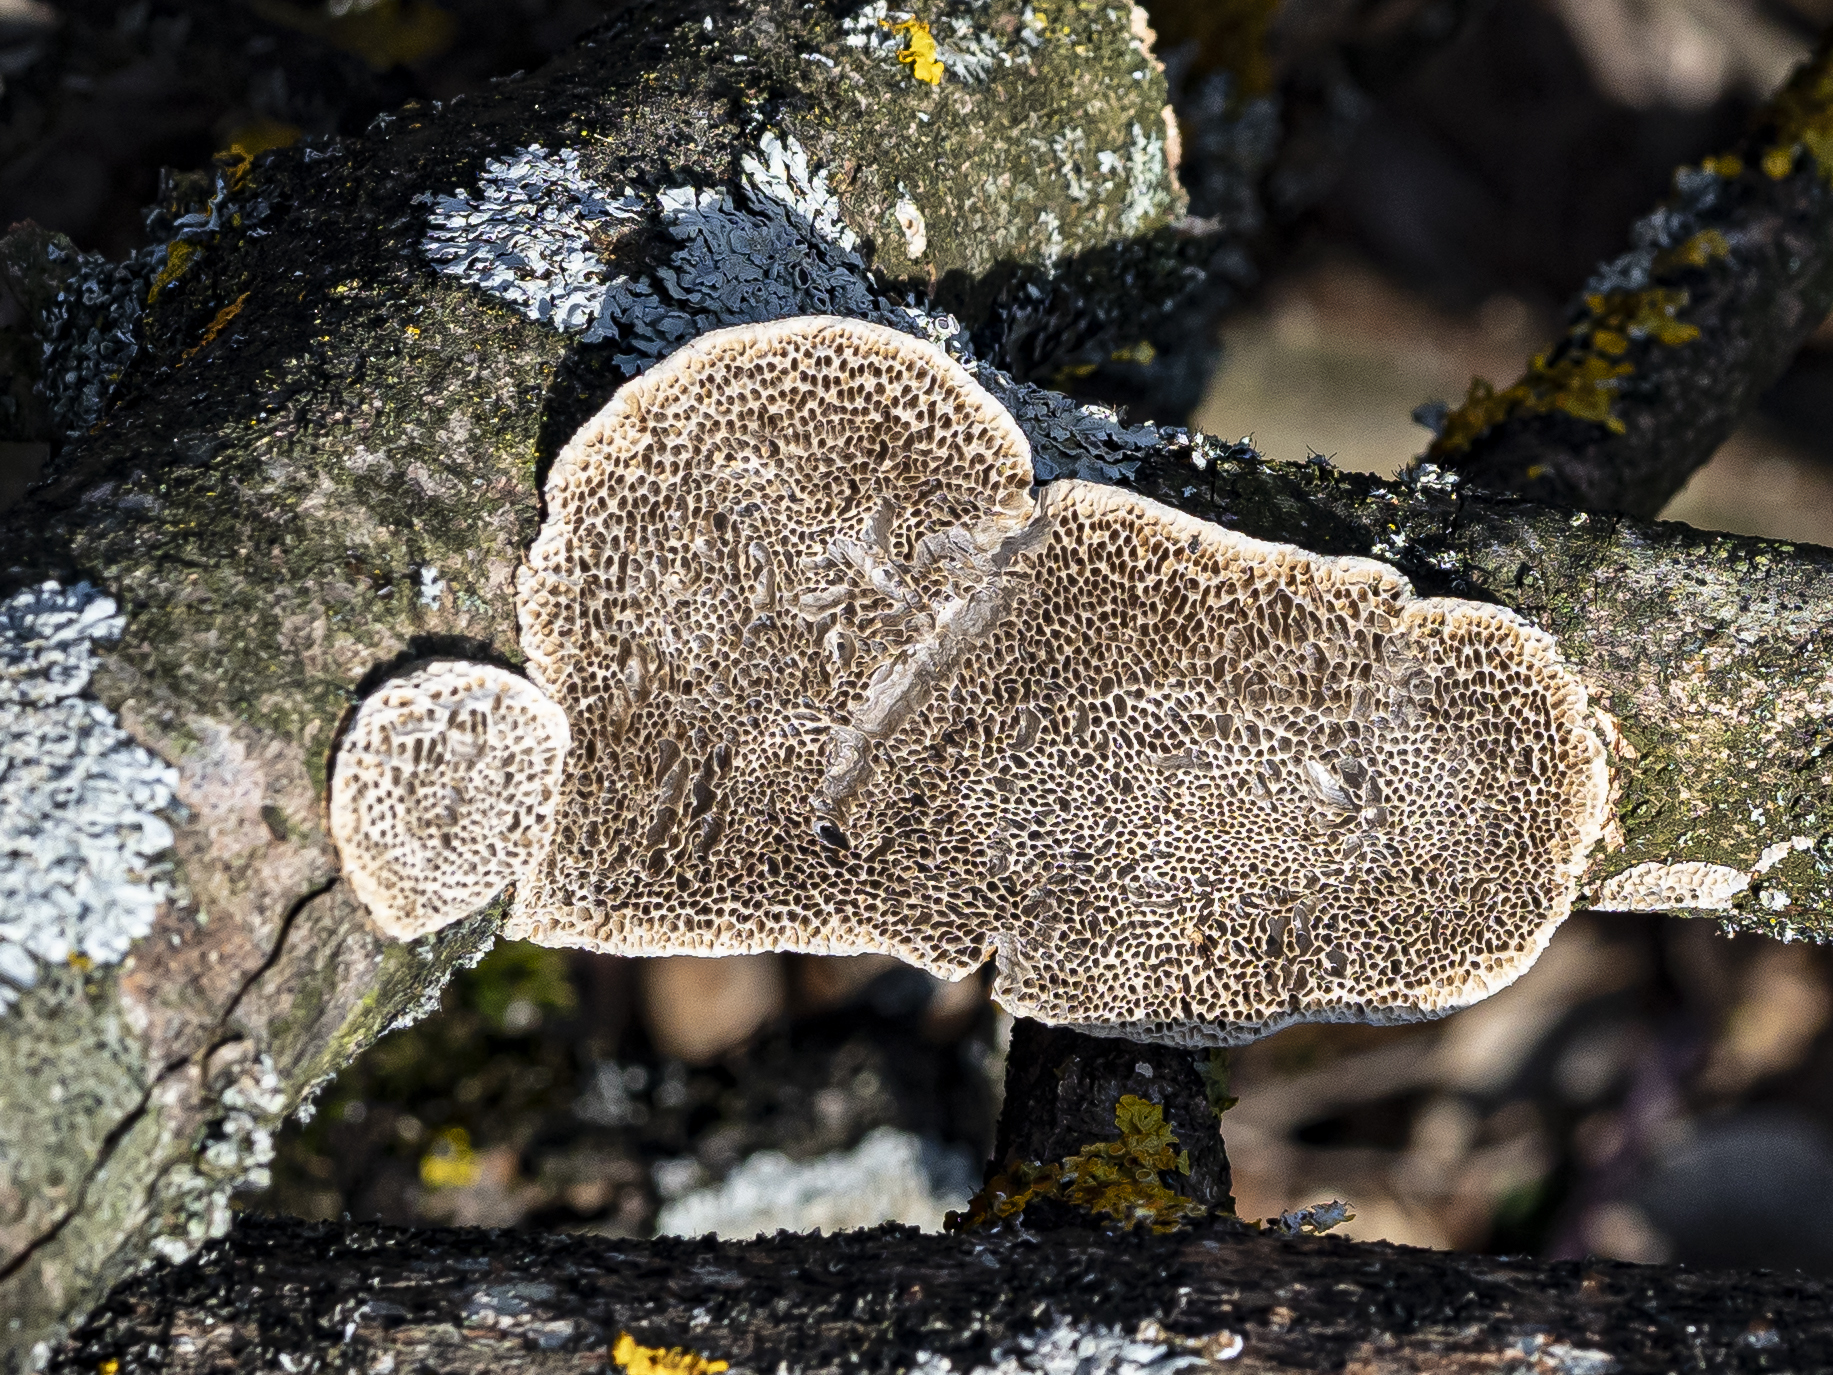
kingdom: Fungi
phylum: Basidiomycota
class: Agaricomycetes
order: Polyporales
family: Polyporaceae
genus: Coriolopsis
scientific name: Coriolopsis gallica
